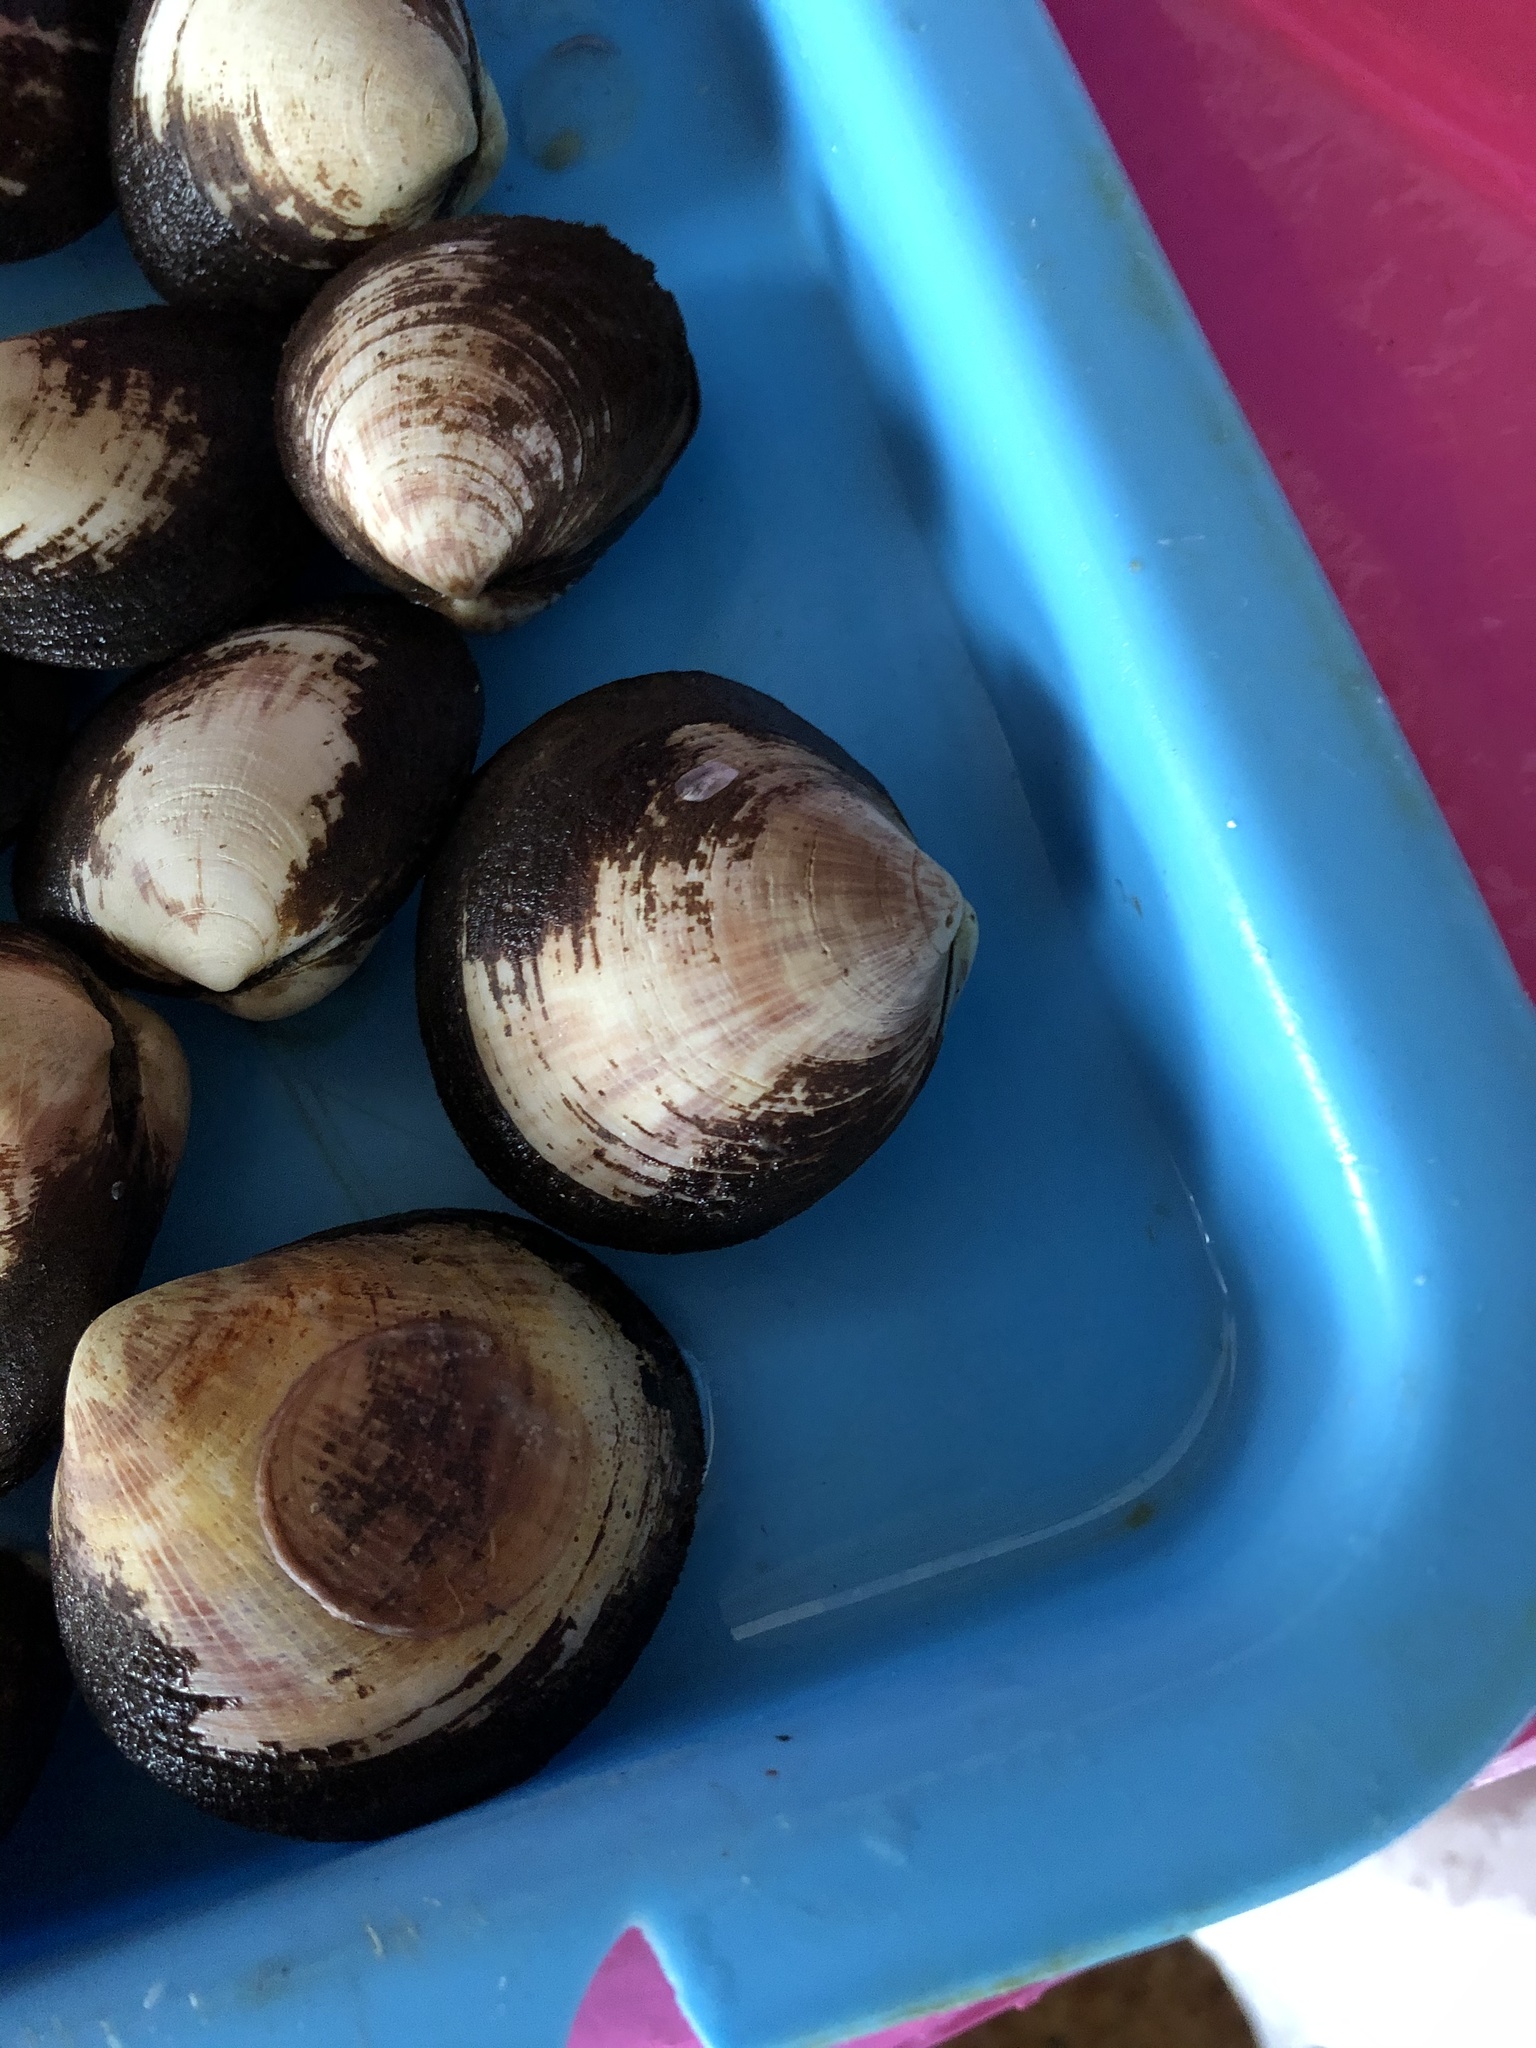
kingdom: Animalia
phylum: Mollusca
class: Bivalvia
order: Arcida
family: Glycymerididae
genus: Glycymeris
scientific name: Glycymeris ovata
